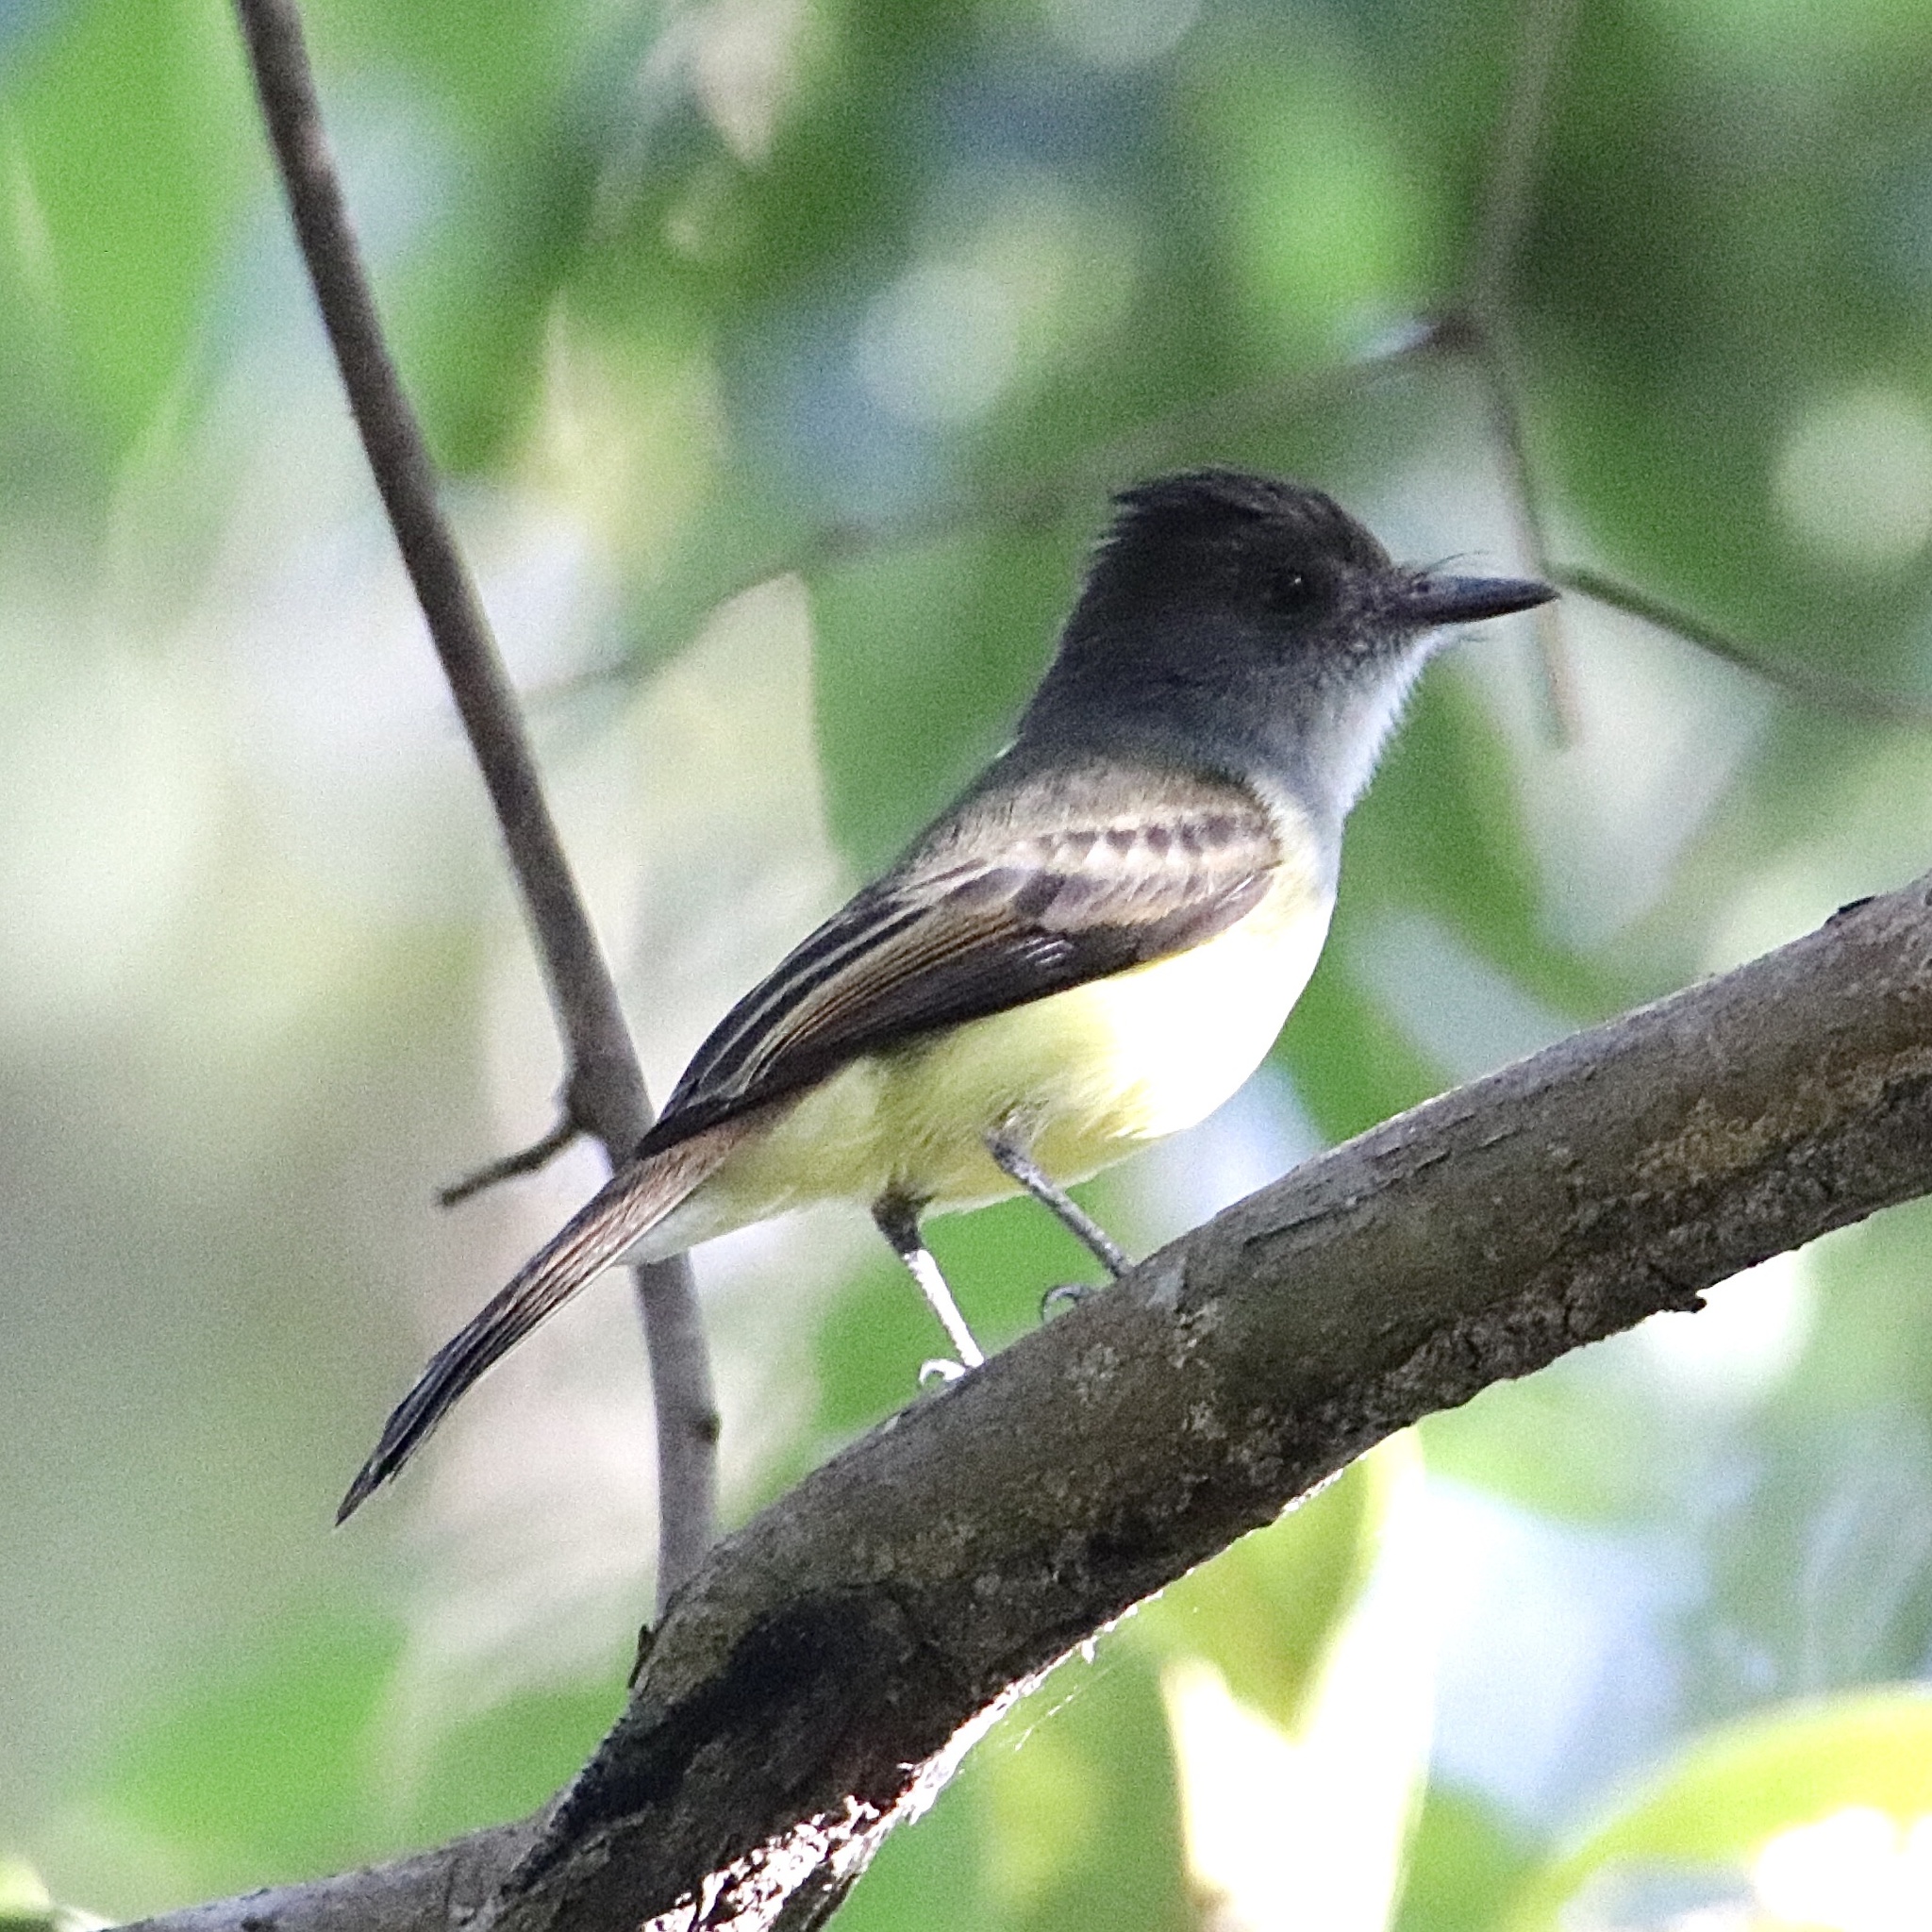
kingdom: Animalia
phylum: Chordata
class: Aves
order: Passeriformes
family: Tyrannidae
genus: Myiarchus
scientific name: Myiarchus tuberculifer
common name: Dusky-capped flycatcher
